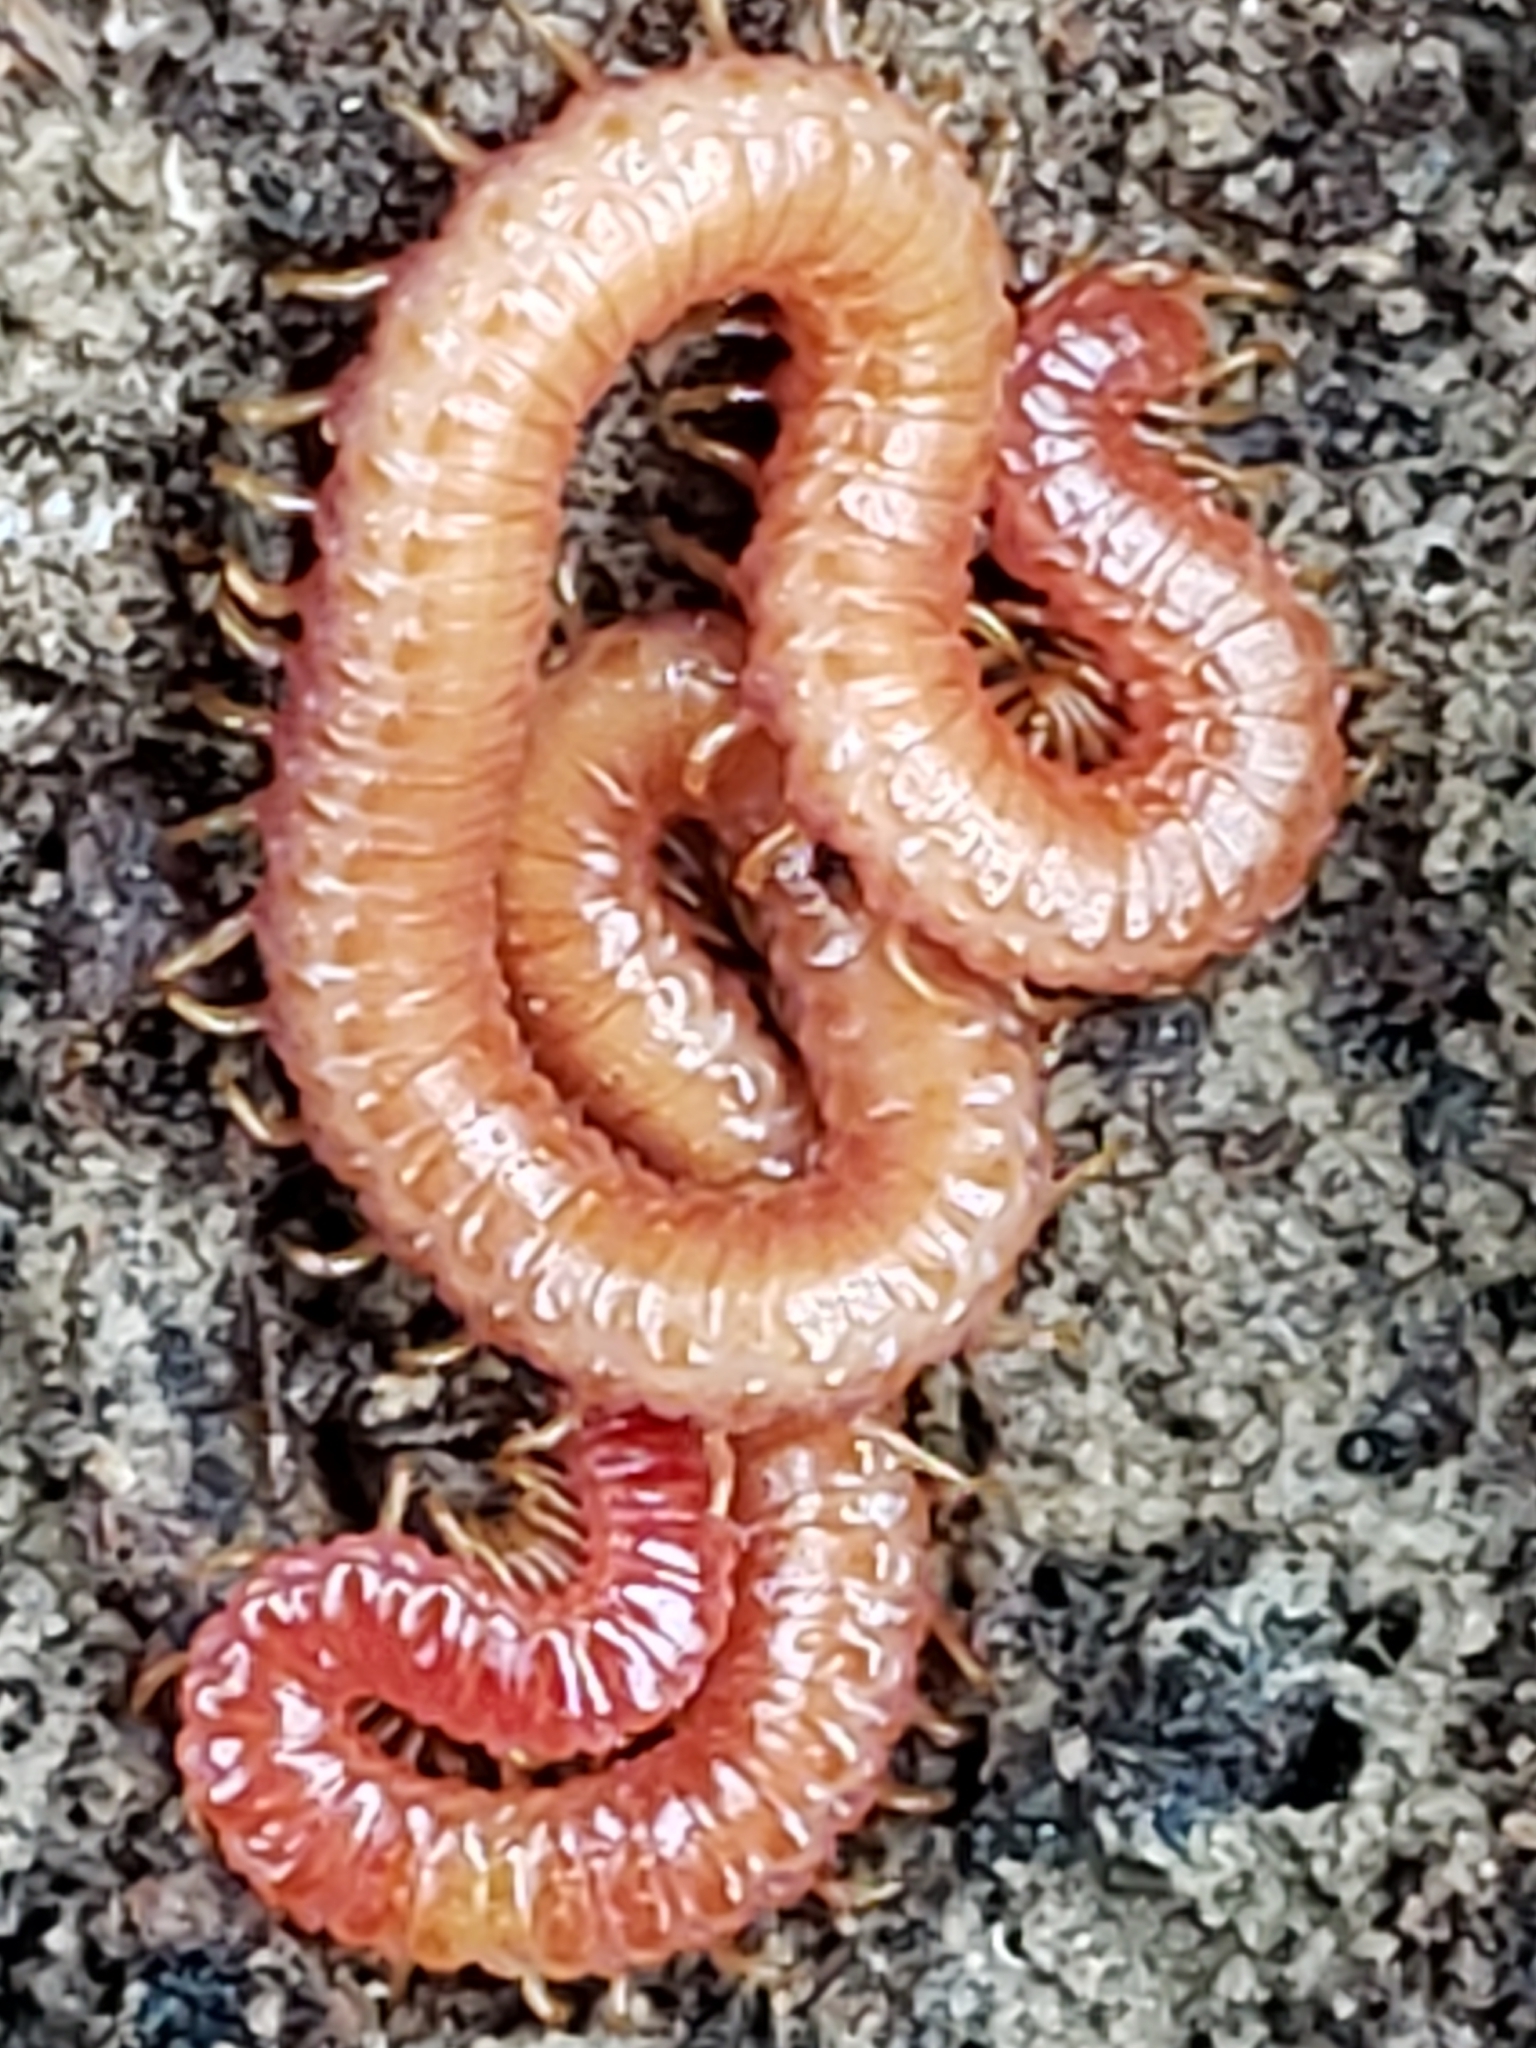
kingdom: Animalia
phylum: Arthropoda
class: Chilopoda
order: Geophilomorpha
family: Linotaeniidae
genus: Strigamia
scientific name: Strigamia bidens
